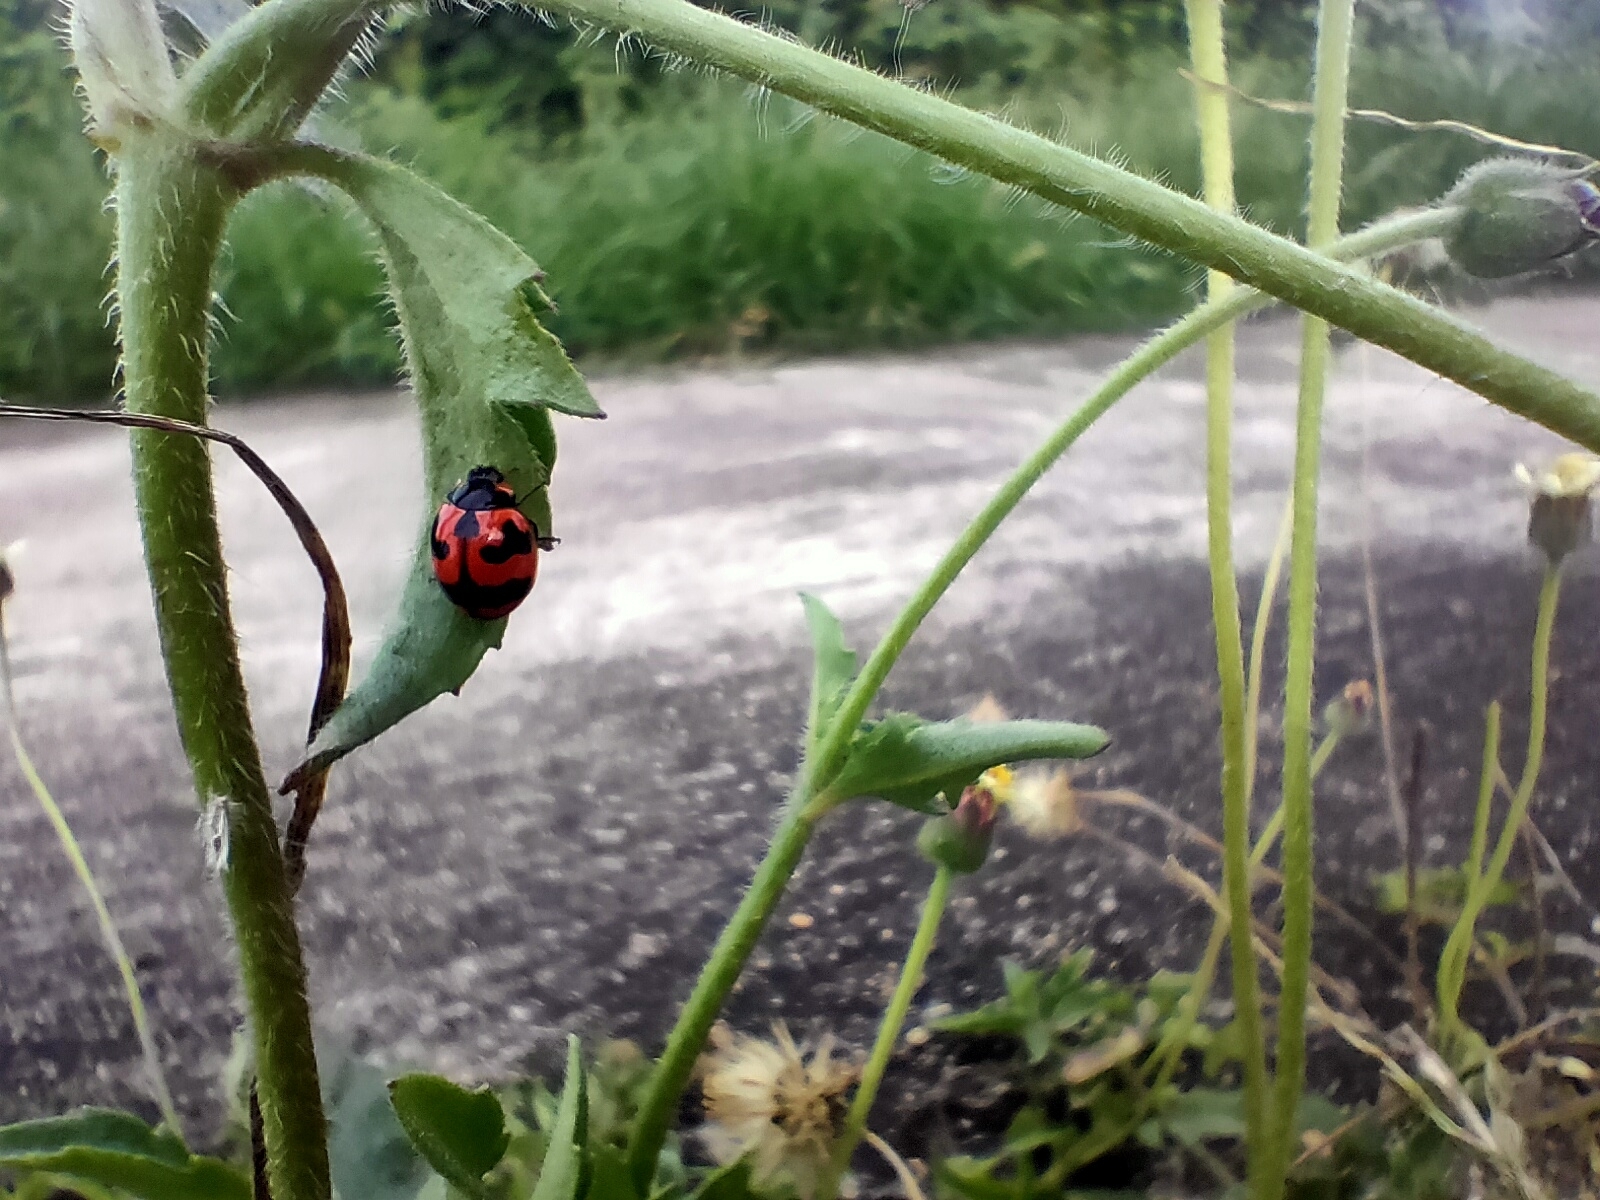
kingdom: Animalia
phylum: Arthropoda
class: Insecta
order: Coleoptera
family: Coccinellidae
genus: Coccinella
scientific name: Coccinella transversalis
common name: Transverse lady beetle
